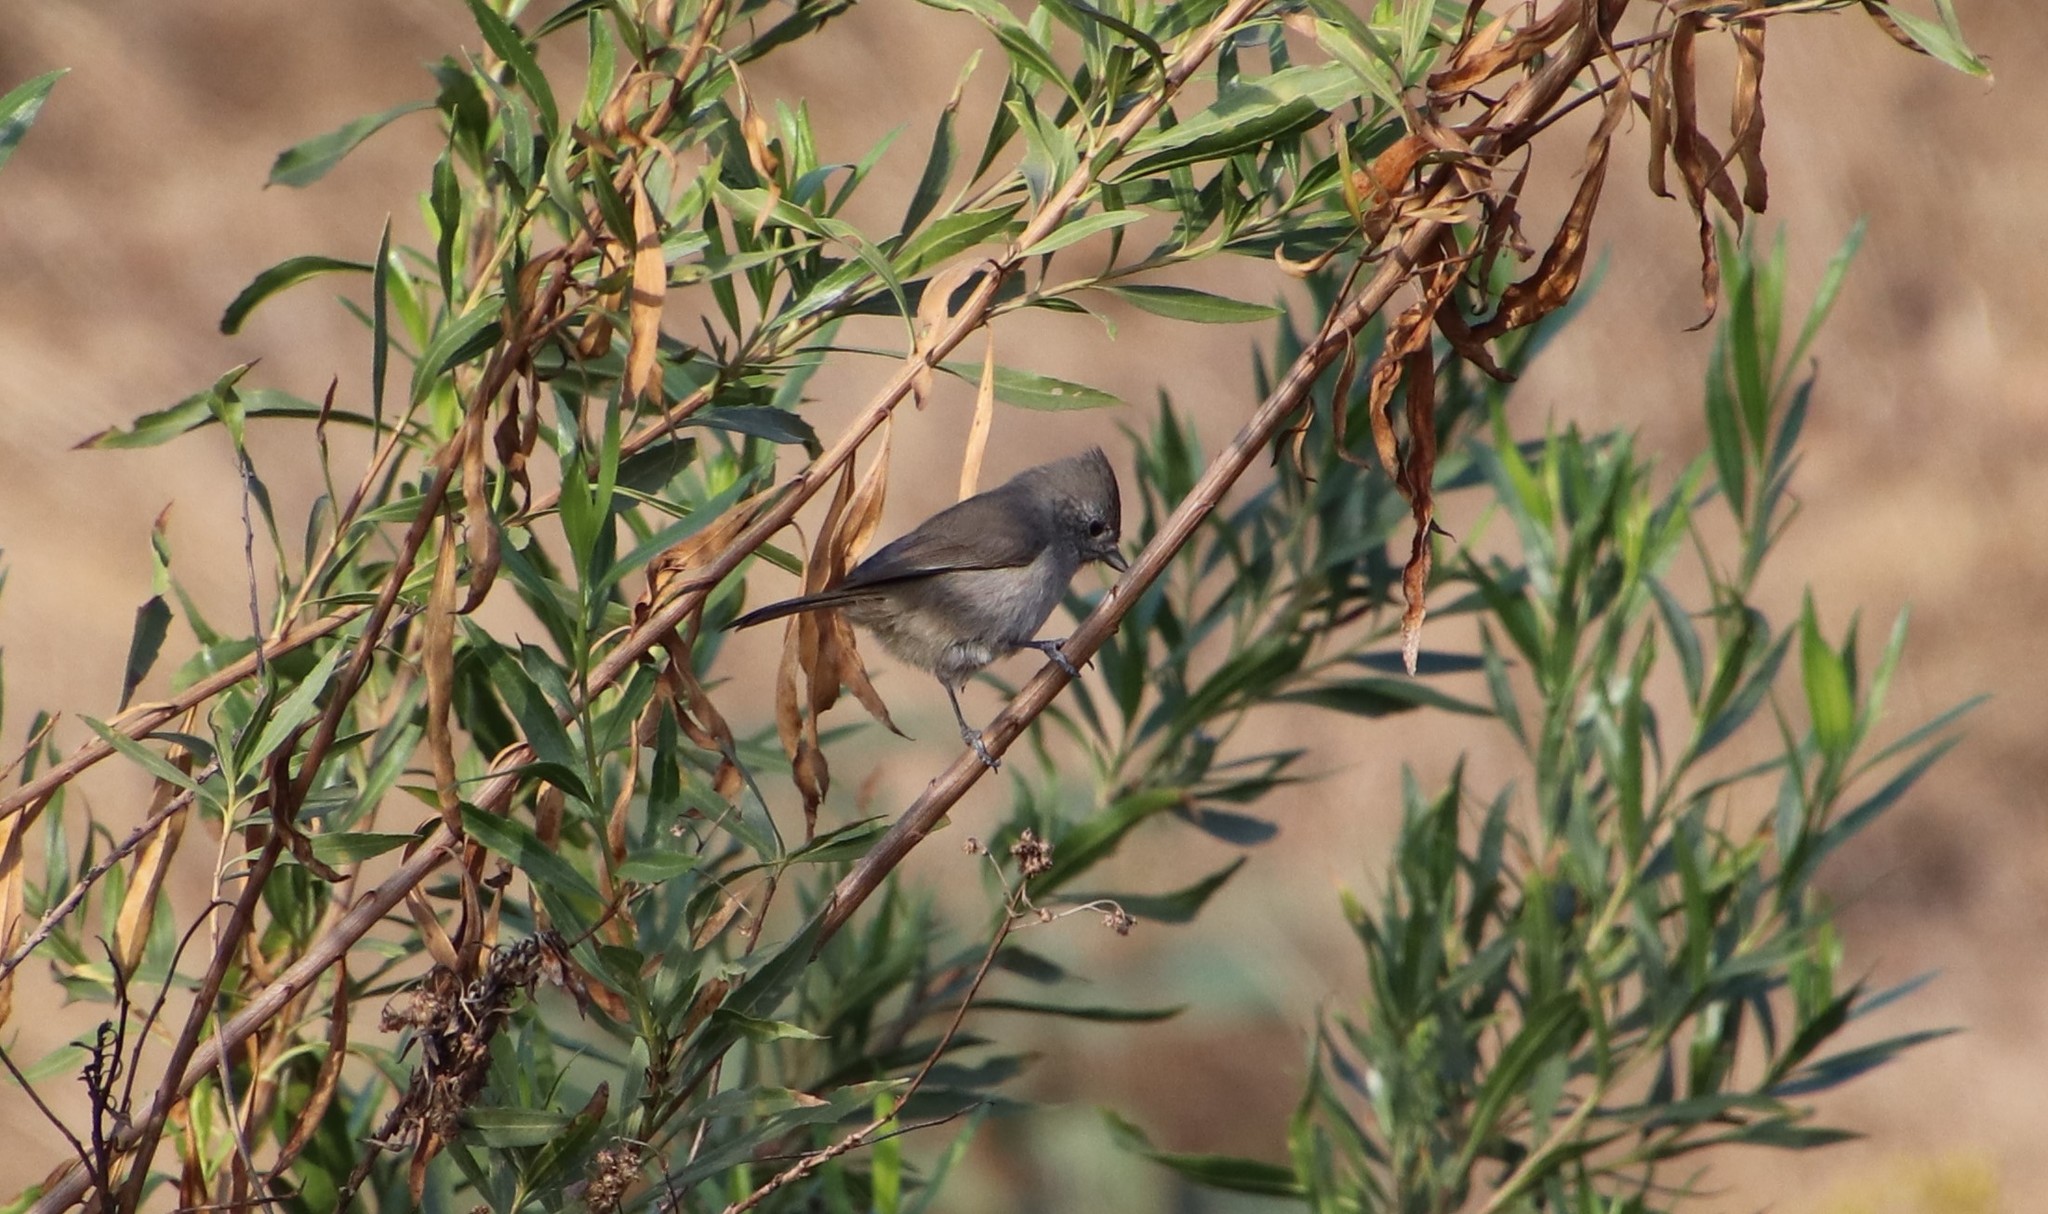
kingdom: Animalia
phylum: Chordata
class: Aves
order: Passeriformes
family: Paridae
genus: Baeolophus
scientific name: Baeolophus inornatus
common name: Oak titmouse
